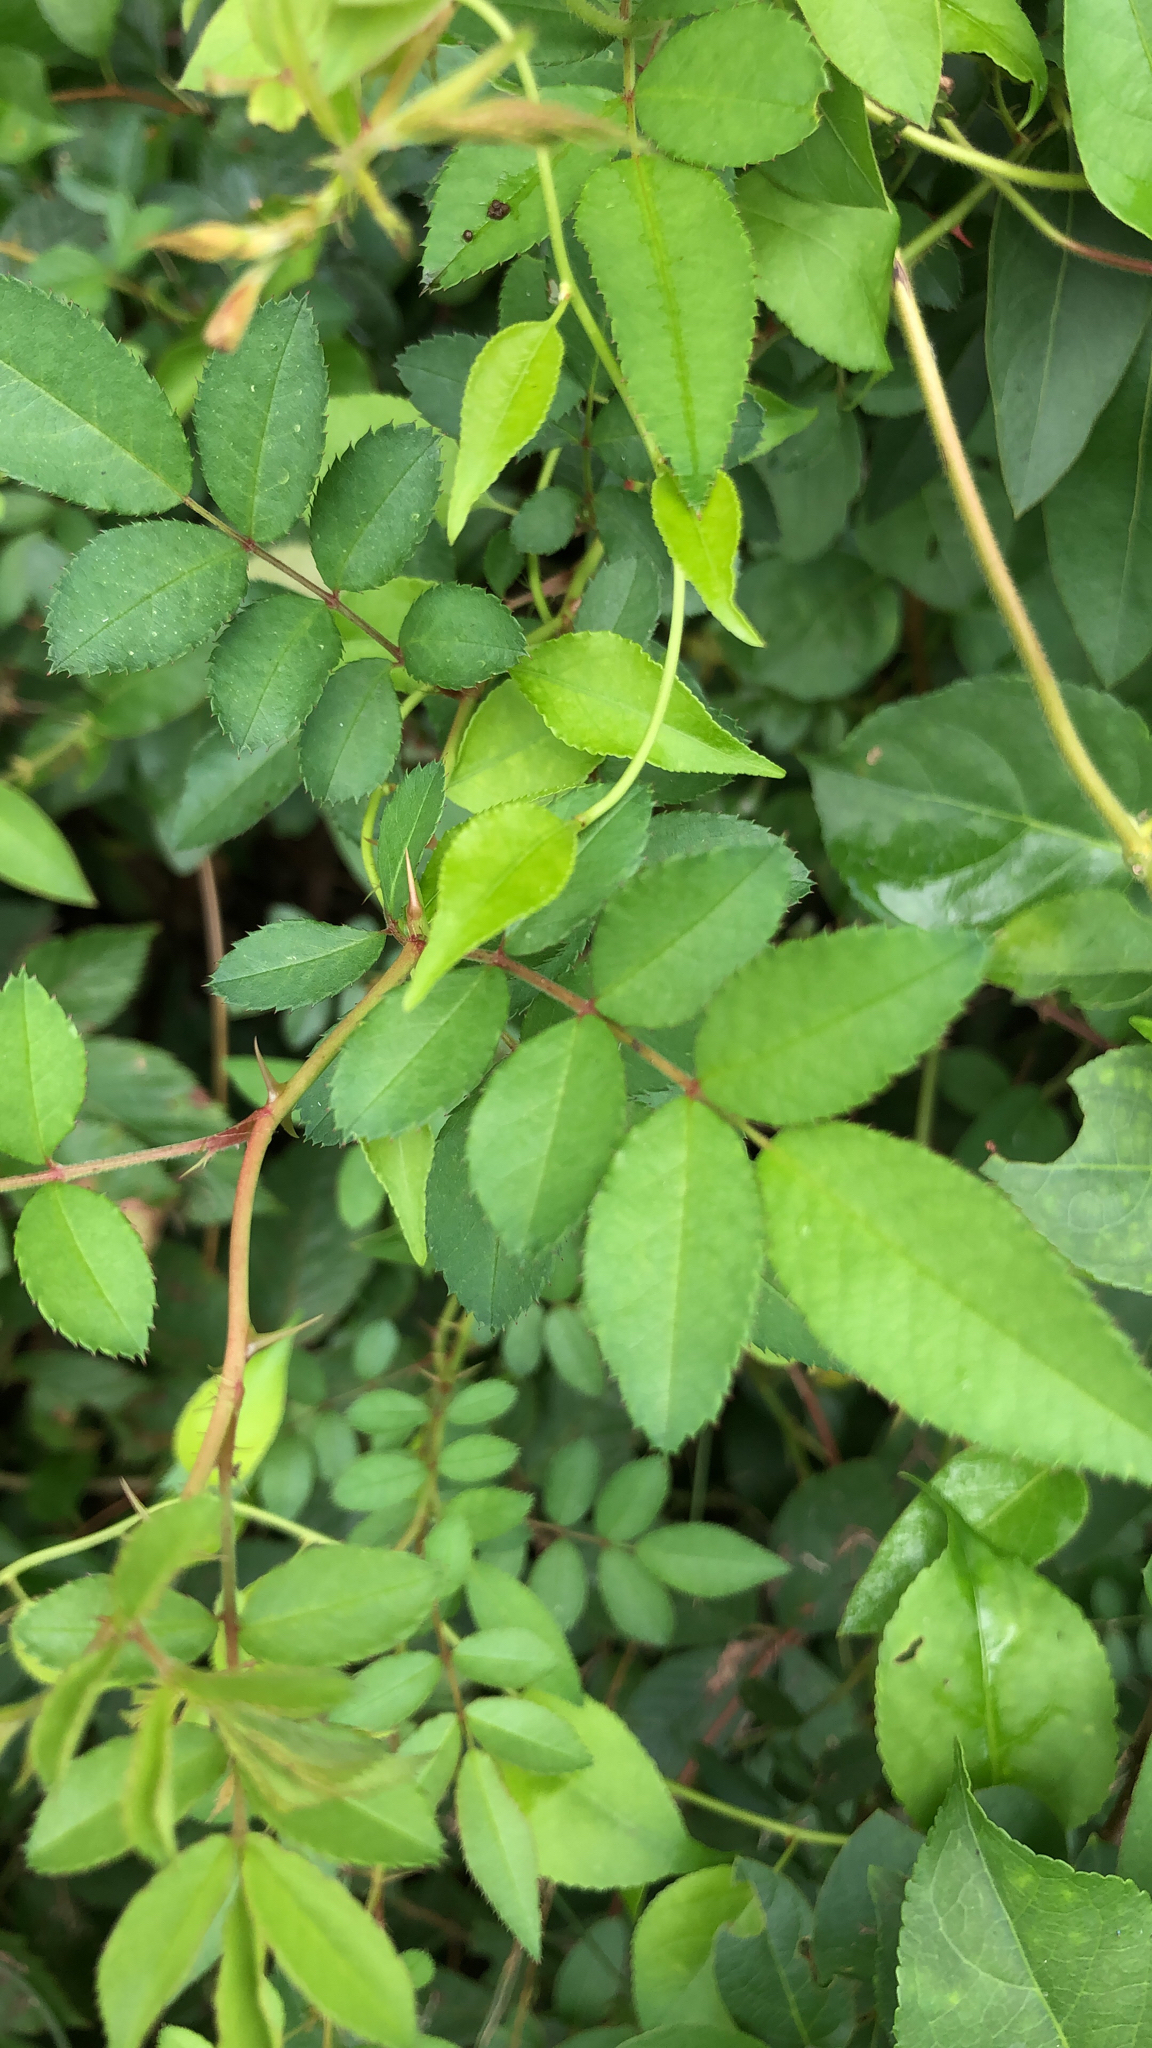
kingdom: Plantae
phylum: Tracheophyta
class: Magnoliopsida
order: Rosales
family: Rosaceae
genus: Rosa
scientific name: Rosa multiflora
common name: Multiflora rose
